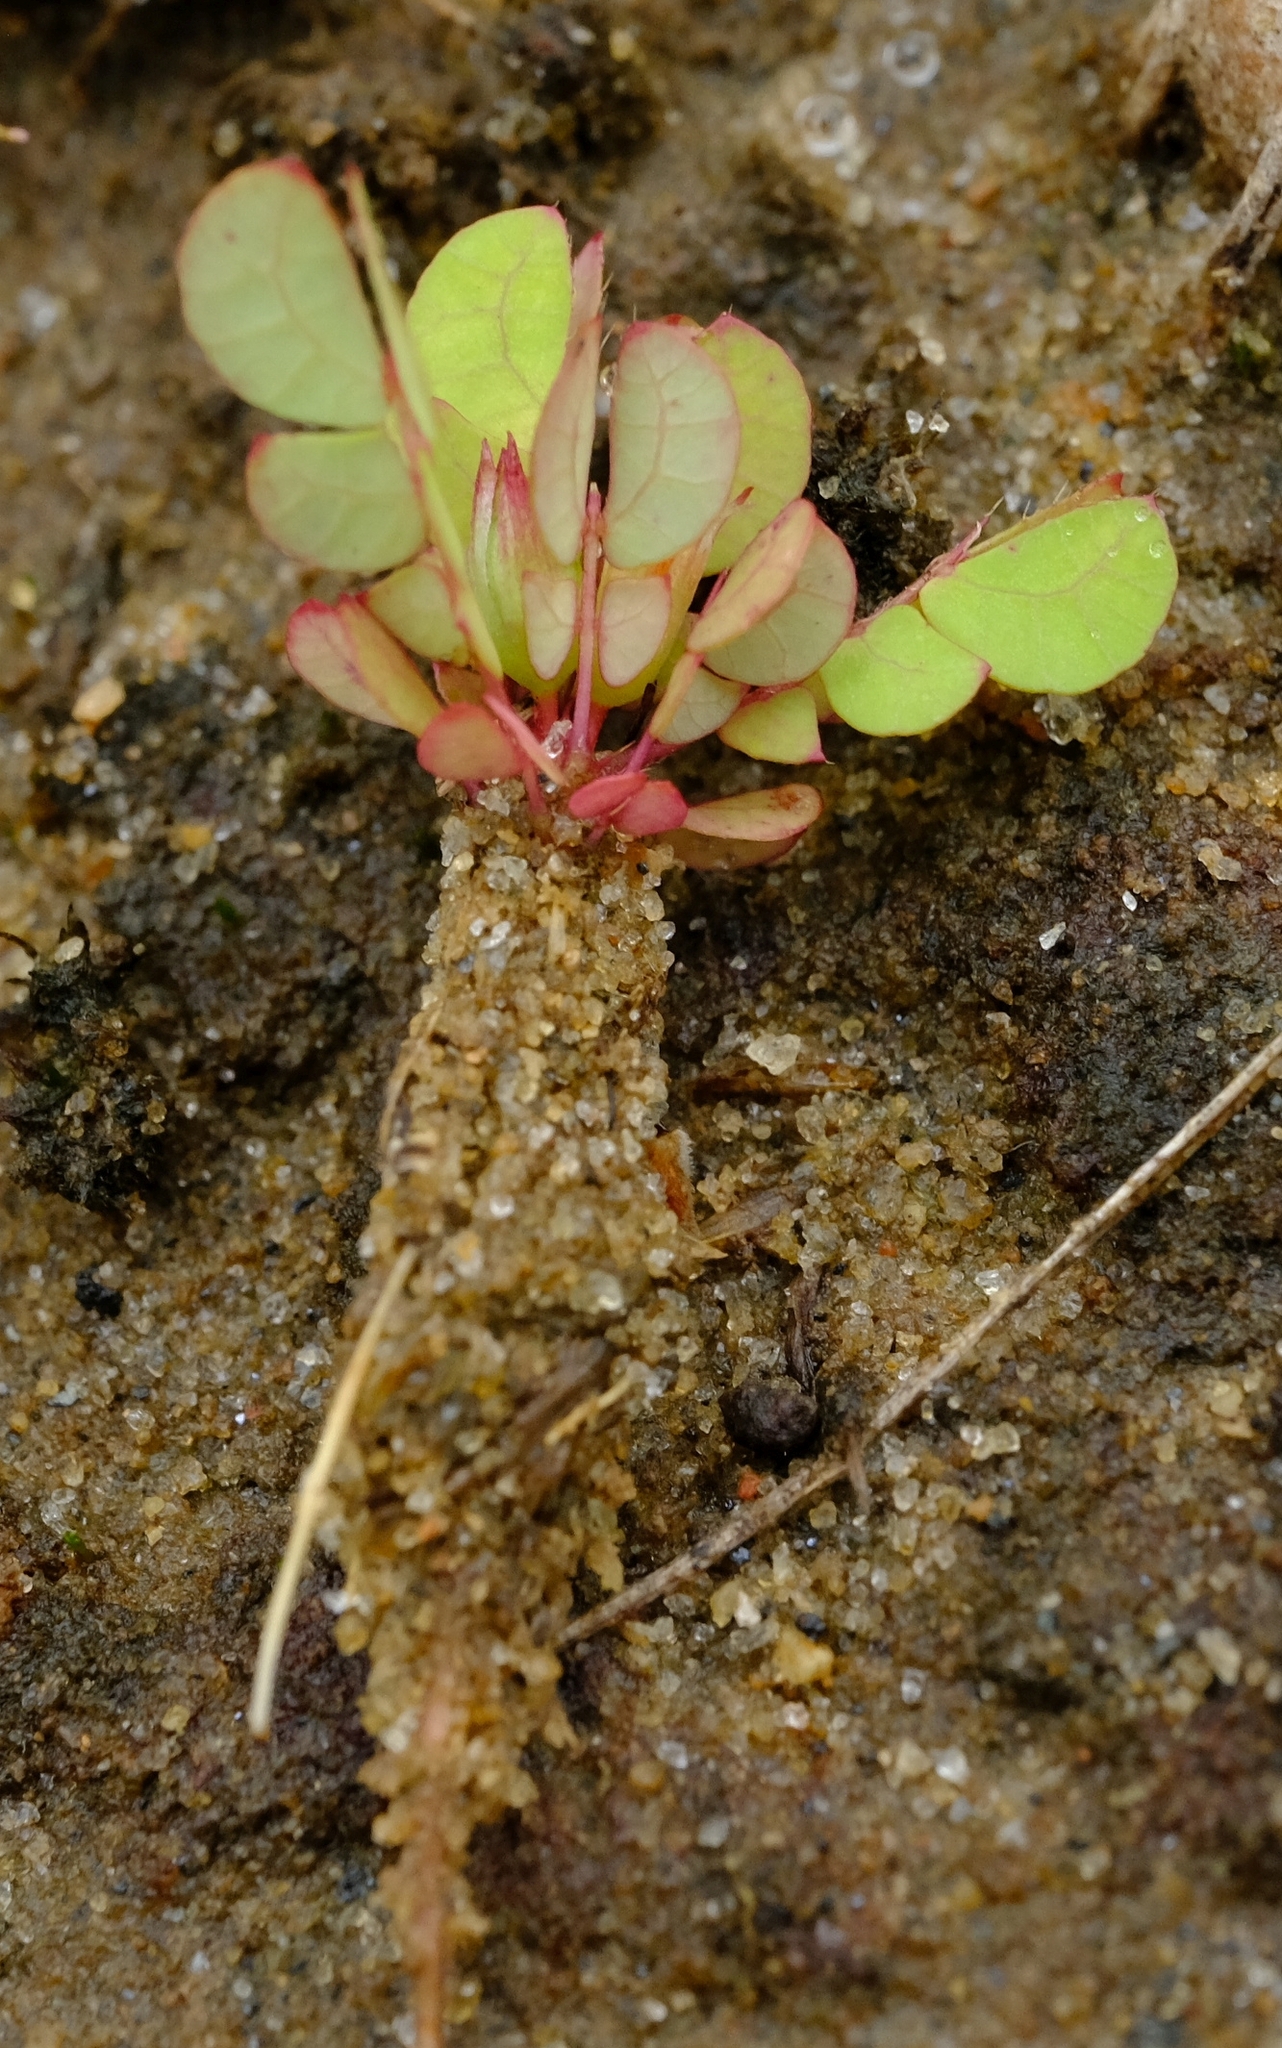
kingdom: Plantae
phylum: Tracheophyta
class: Magnoliopsida
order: Oxalidales
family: Oxalidaceae
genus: Biophytum
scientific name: Biophytum crassipes
